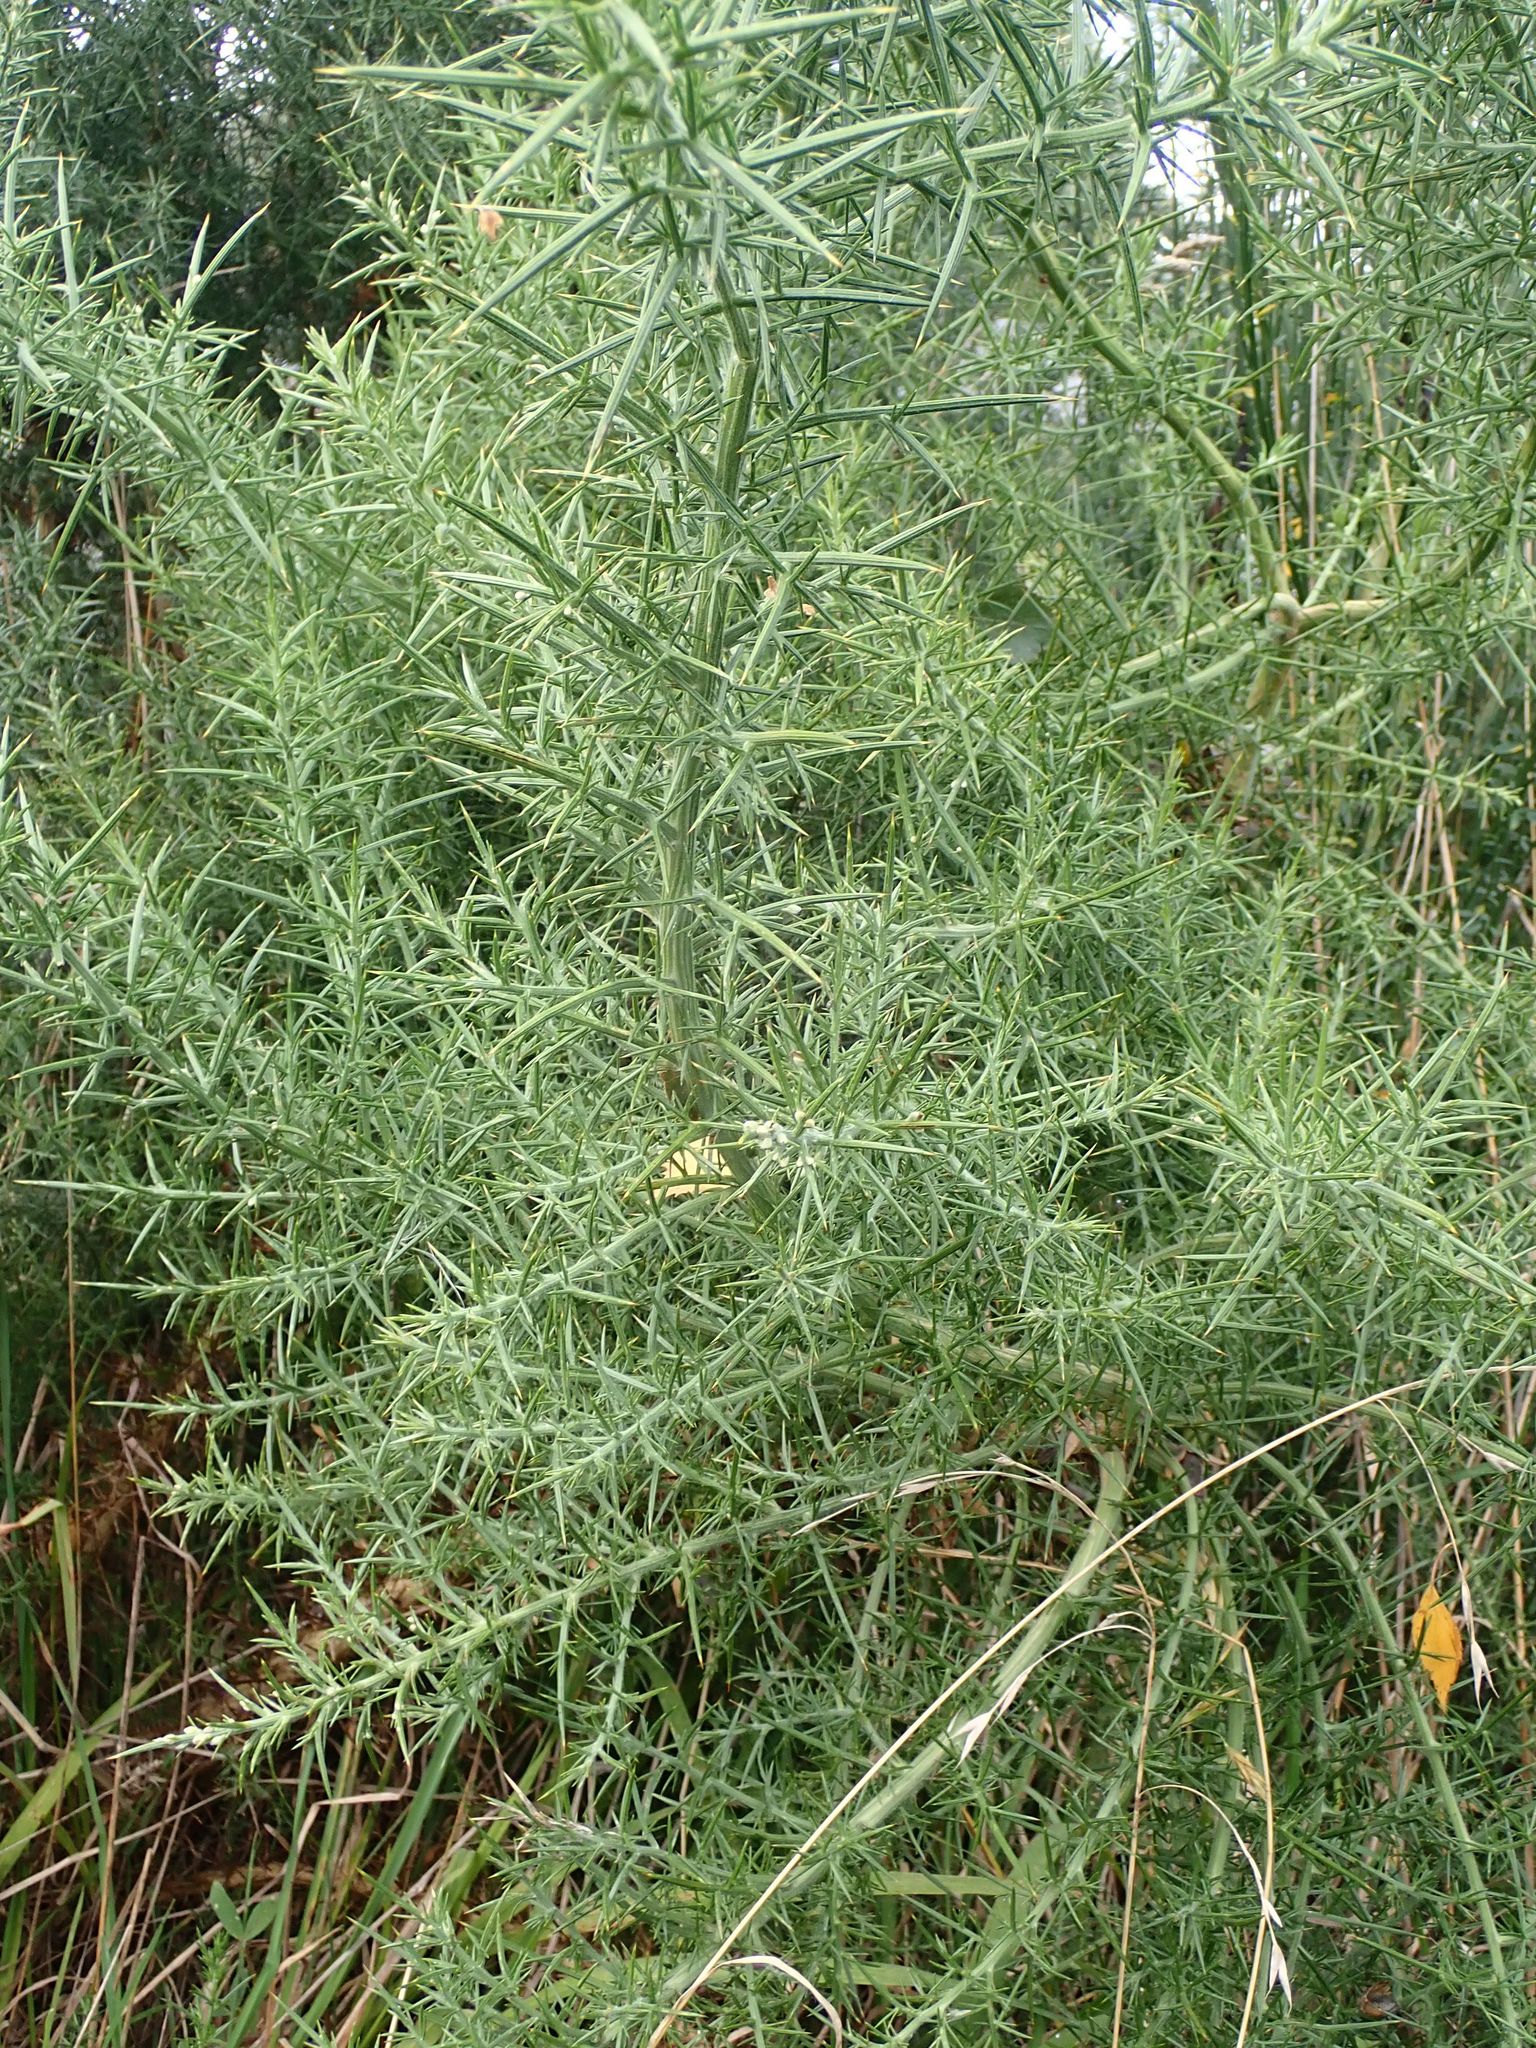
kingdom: Plantae
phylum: Tracheophyta
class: Magnoliopsida
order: Fabales
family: Fabaceae
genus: Ulex
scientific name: Ulex europaeus
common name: Common gorse
